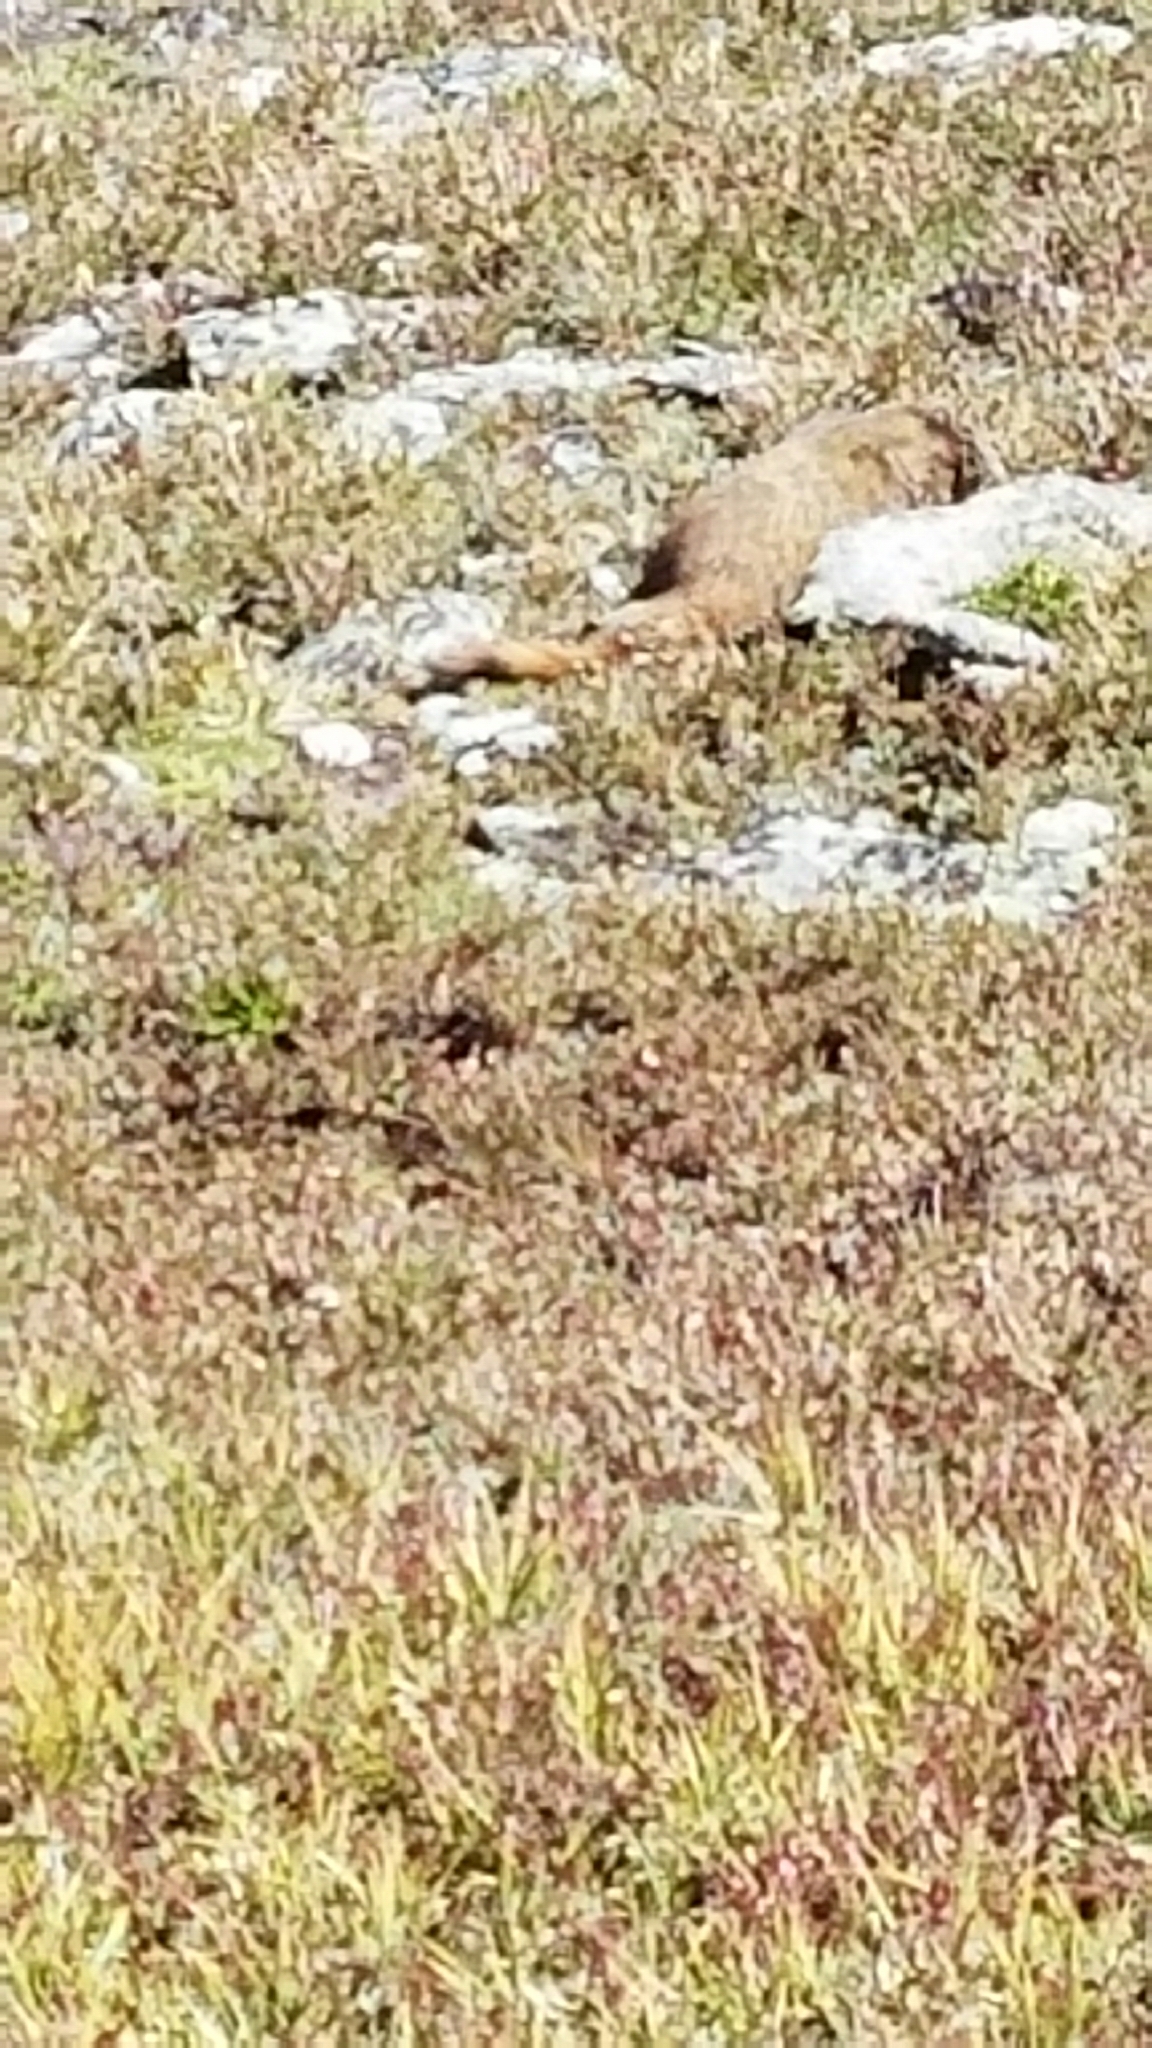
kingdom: Animalia
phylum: Chordata
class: Mammalia
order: Rodentia
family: Sciuridae
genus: Marmota
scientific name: Marmota flaviventris
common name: Yellow-bellied marmot
